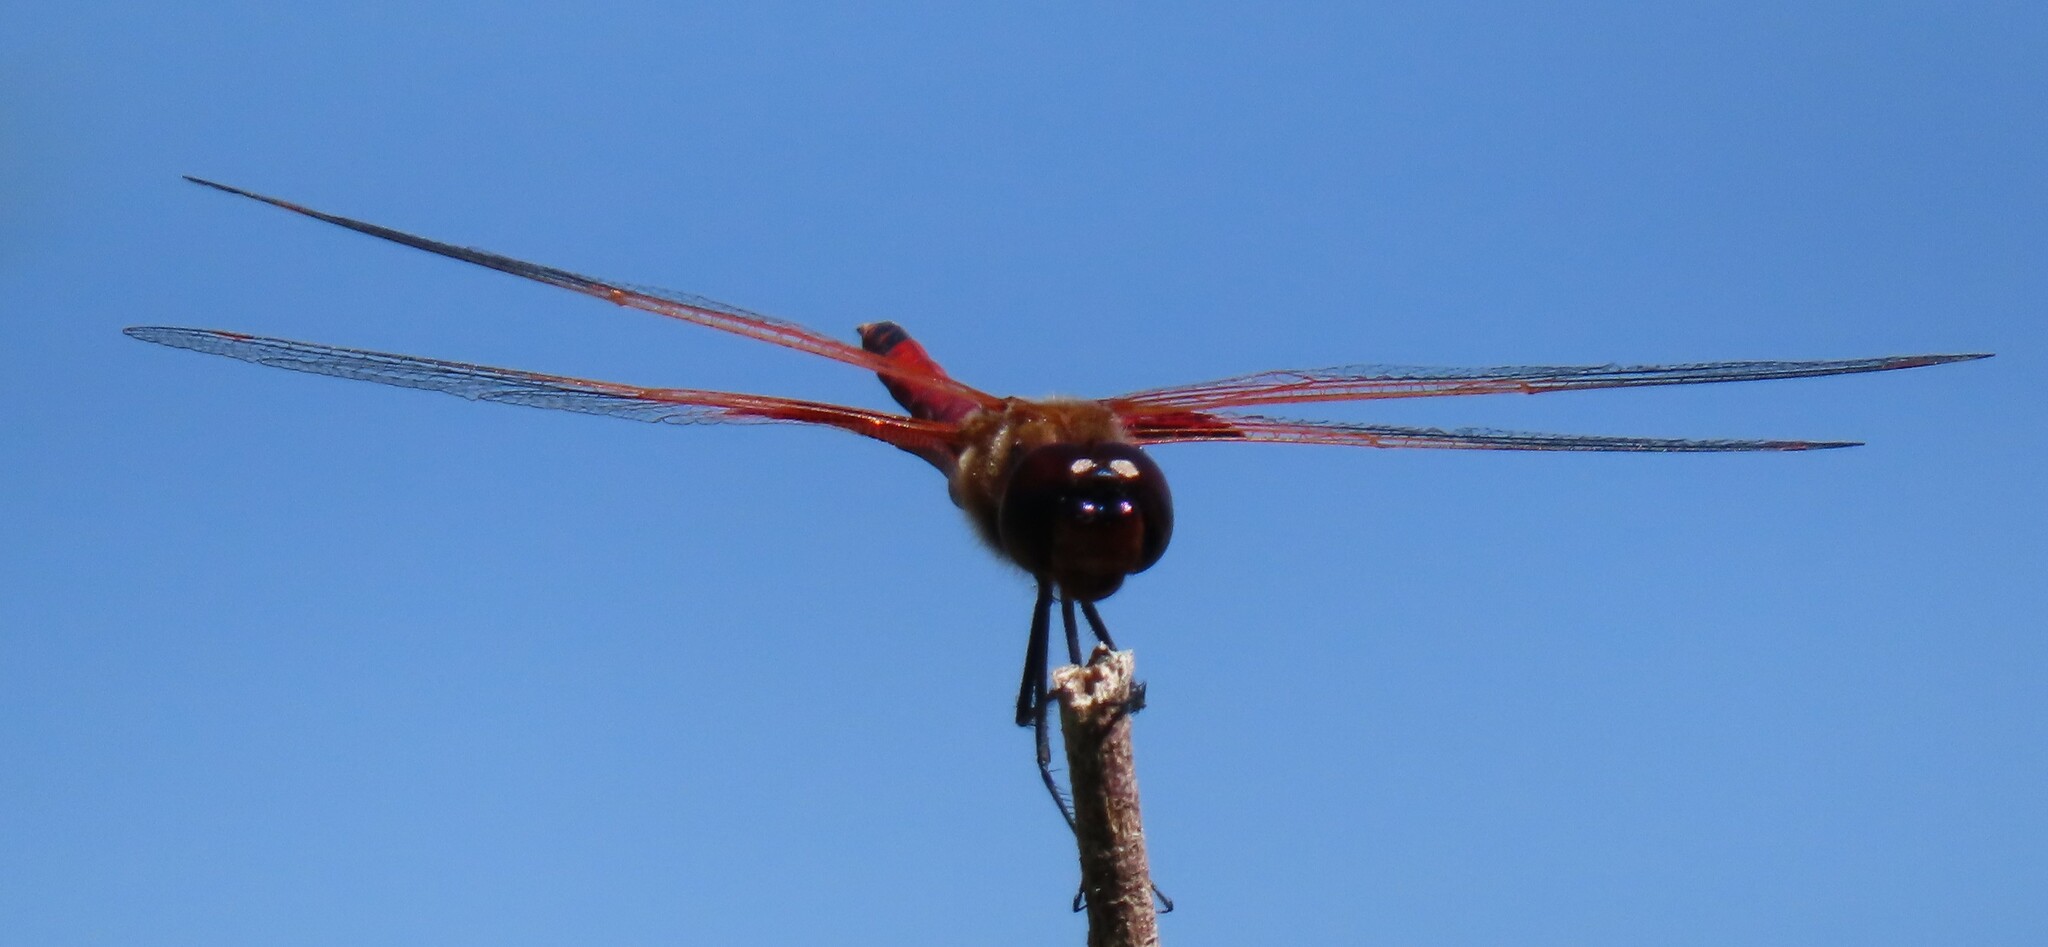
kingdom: Animalia
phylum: Arthropoda
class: Insecta
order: Odonata
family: Libellulidae
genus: Tramea
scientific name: Tramea carolina
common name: Carolina saddlebags
